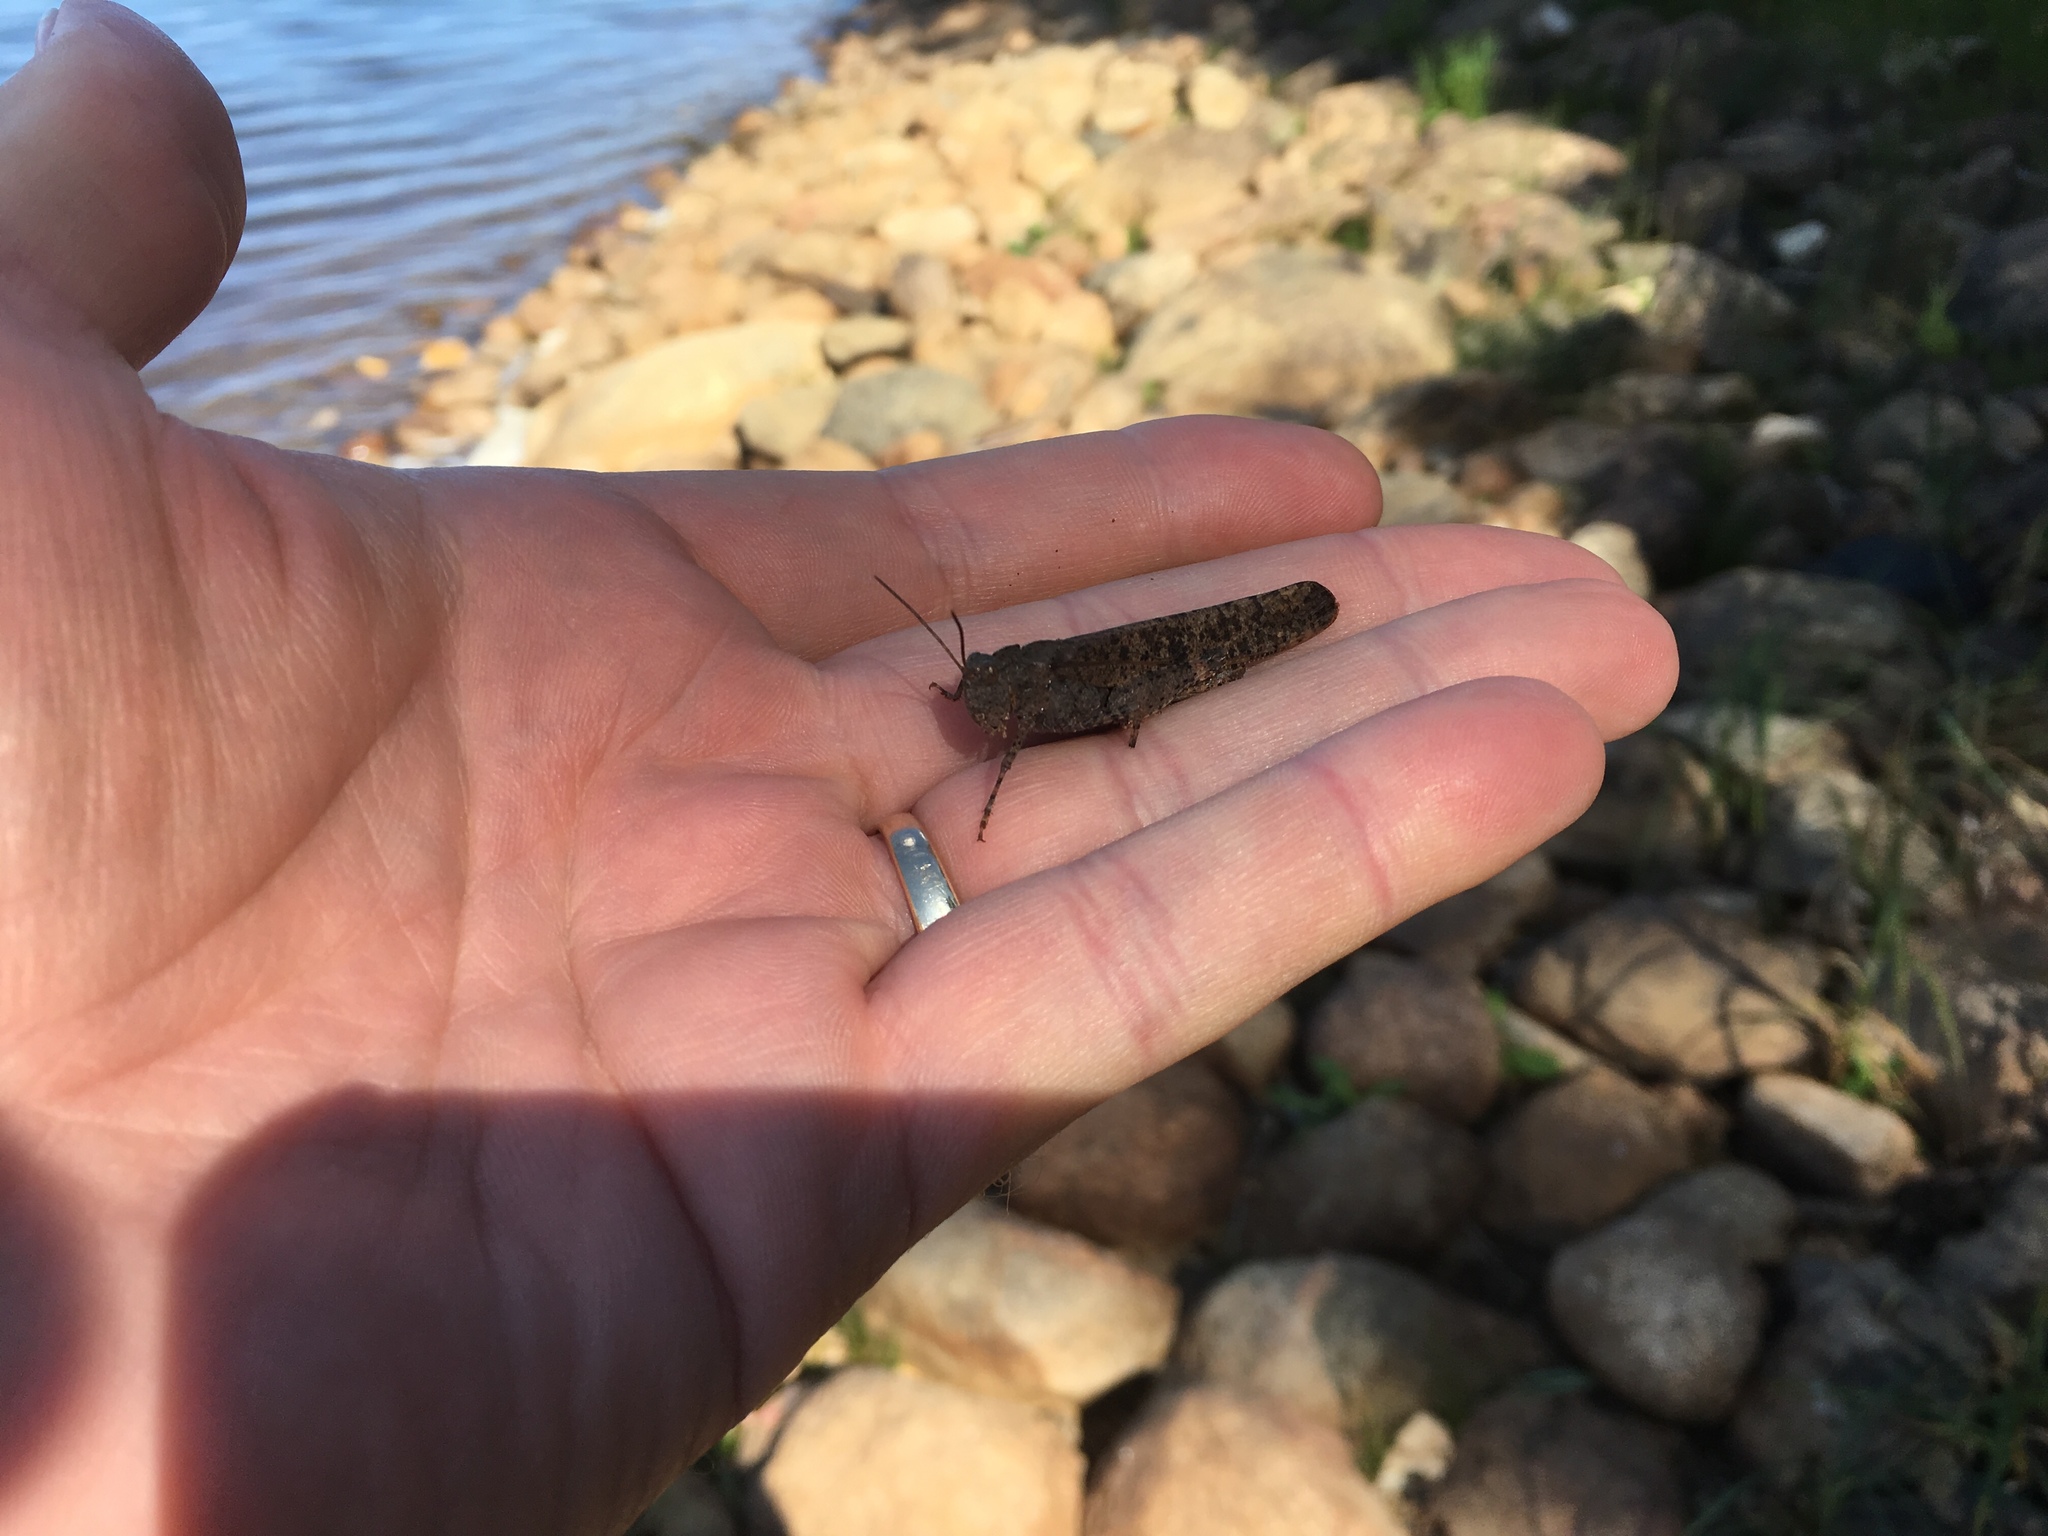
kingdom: Animalia
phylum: Arthropoda
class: Insecta
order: Orthoptera
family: Acrididae
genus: Dissosteira
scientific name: Dissosteira carolina
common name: Carolina grasshopper
